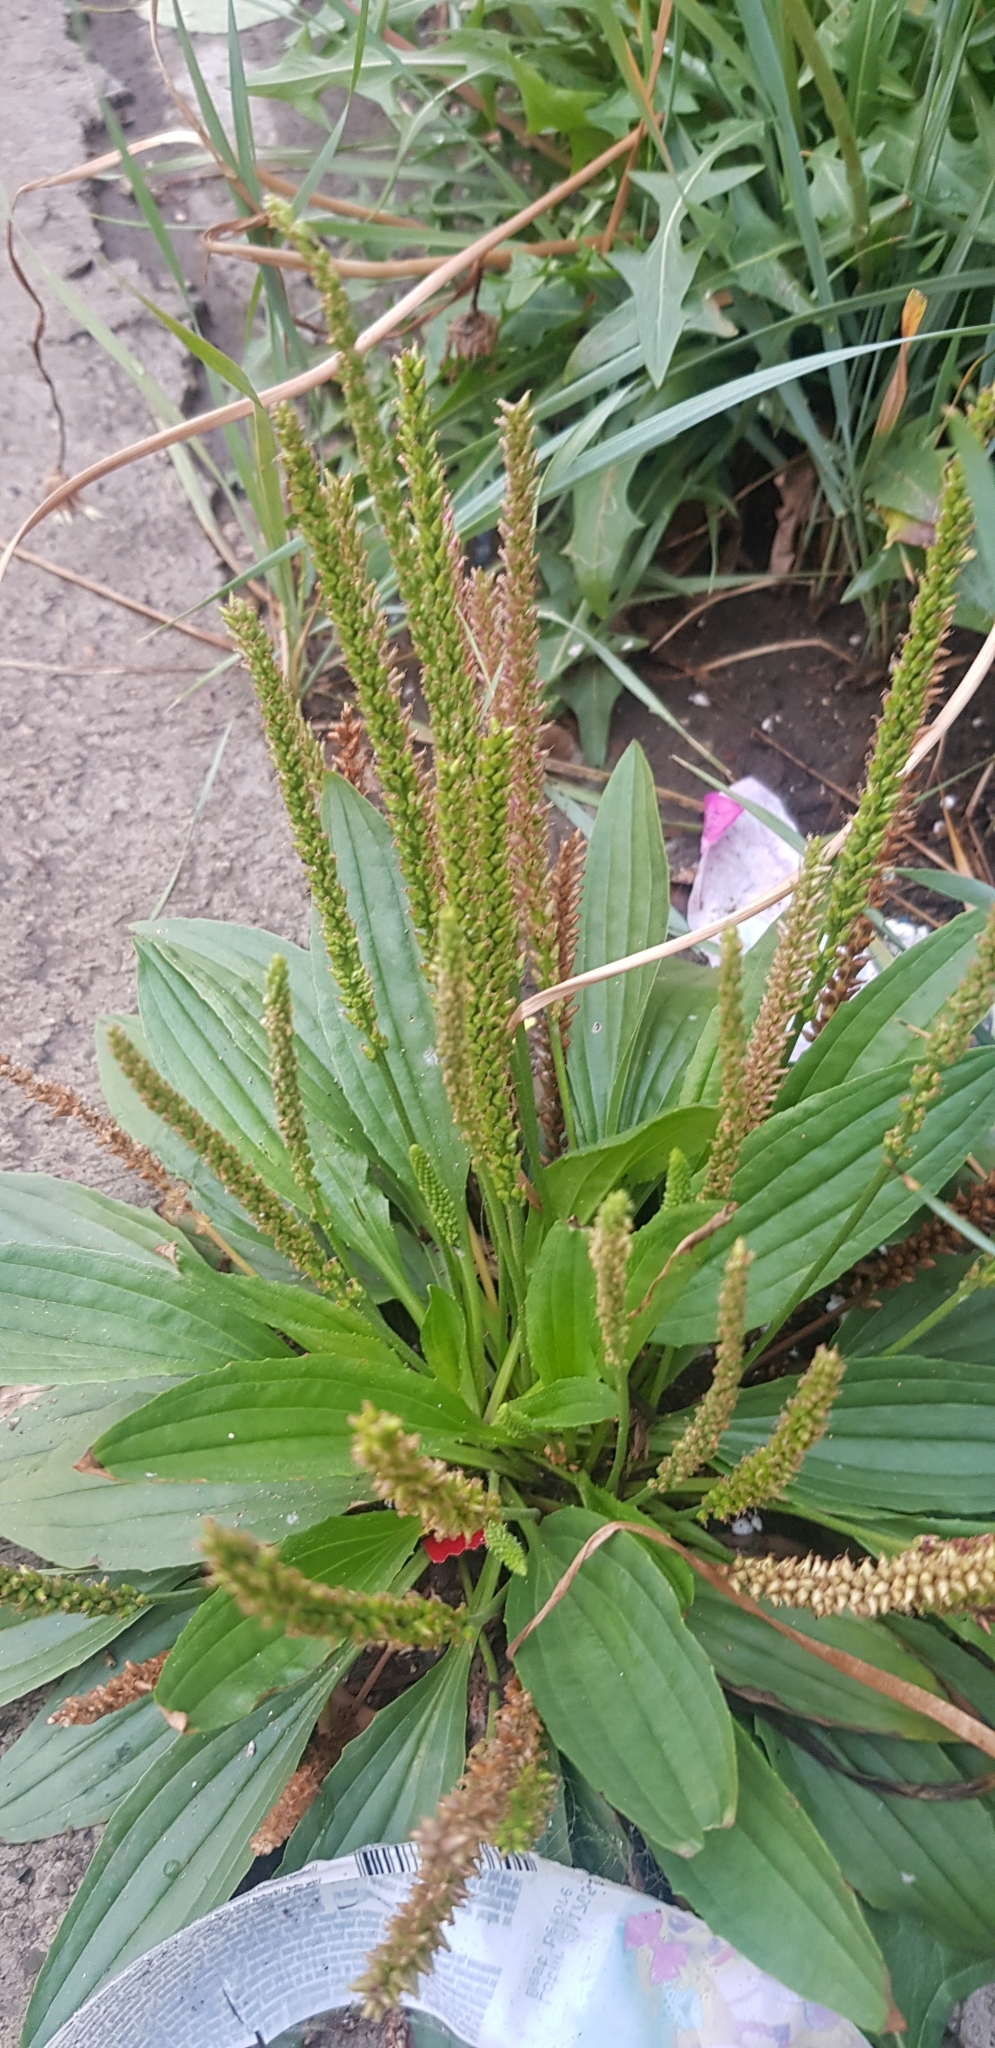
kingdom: Plantae
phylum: Tracheophyta
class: Magnoliopsida
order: Lamiales
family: Plantaginaceae
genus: Plantago
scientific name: Plantago depressa
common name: Depressed plantain
